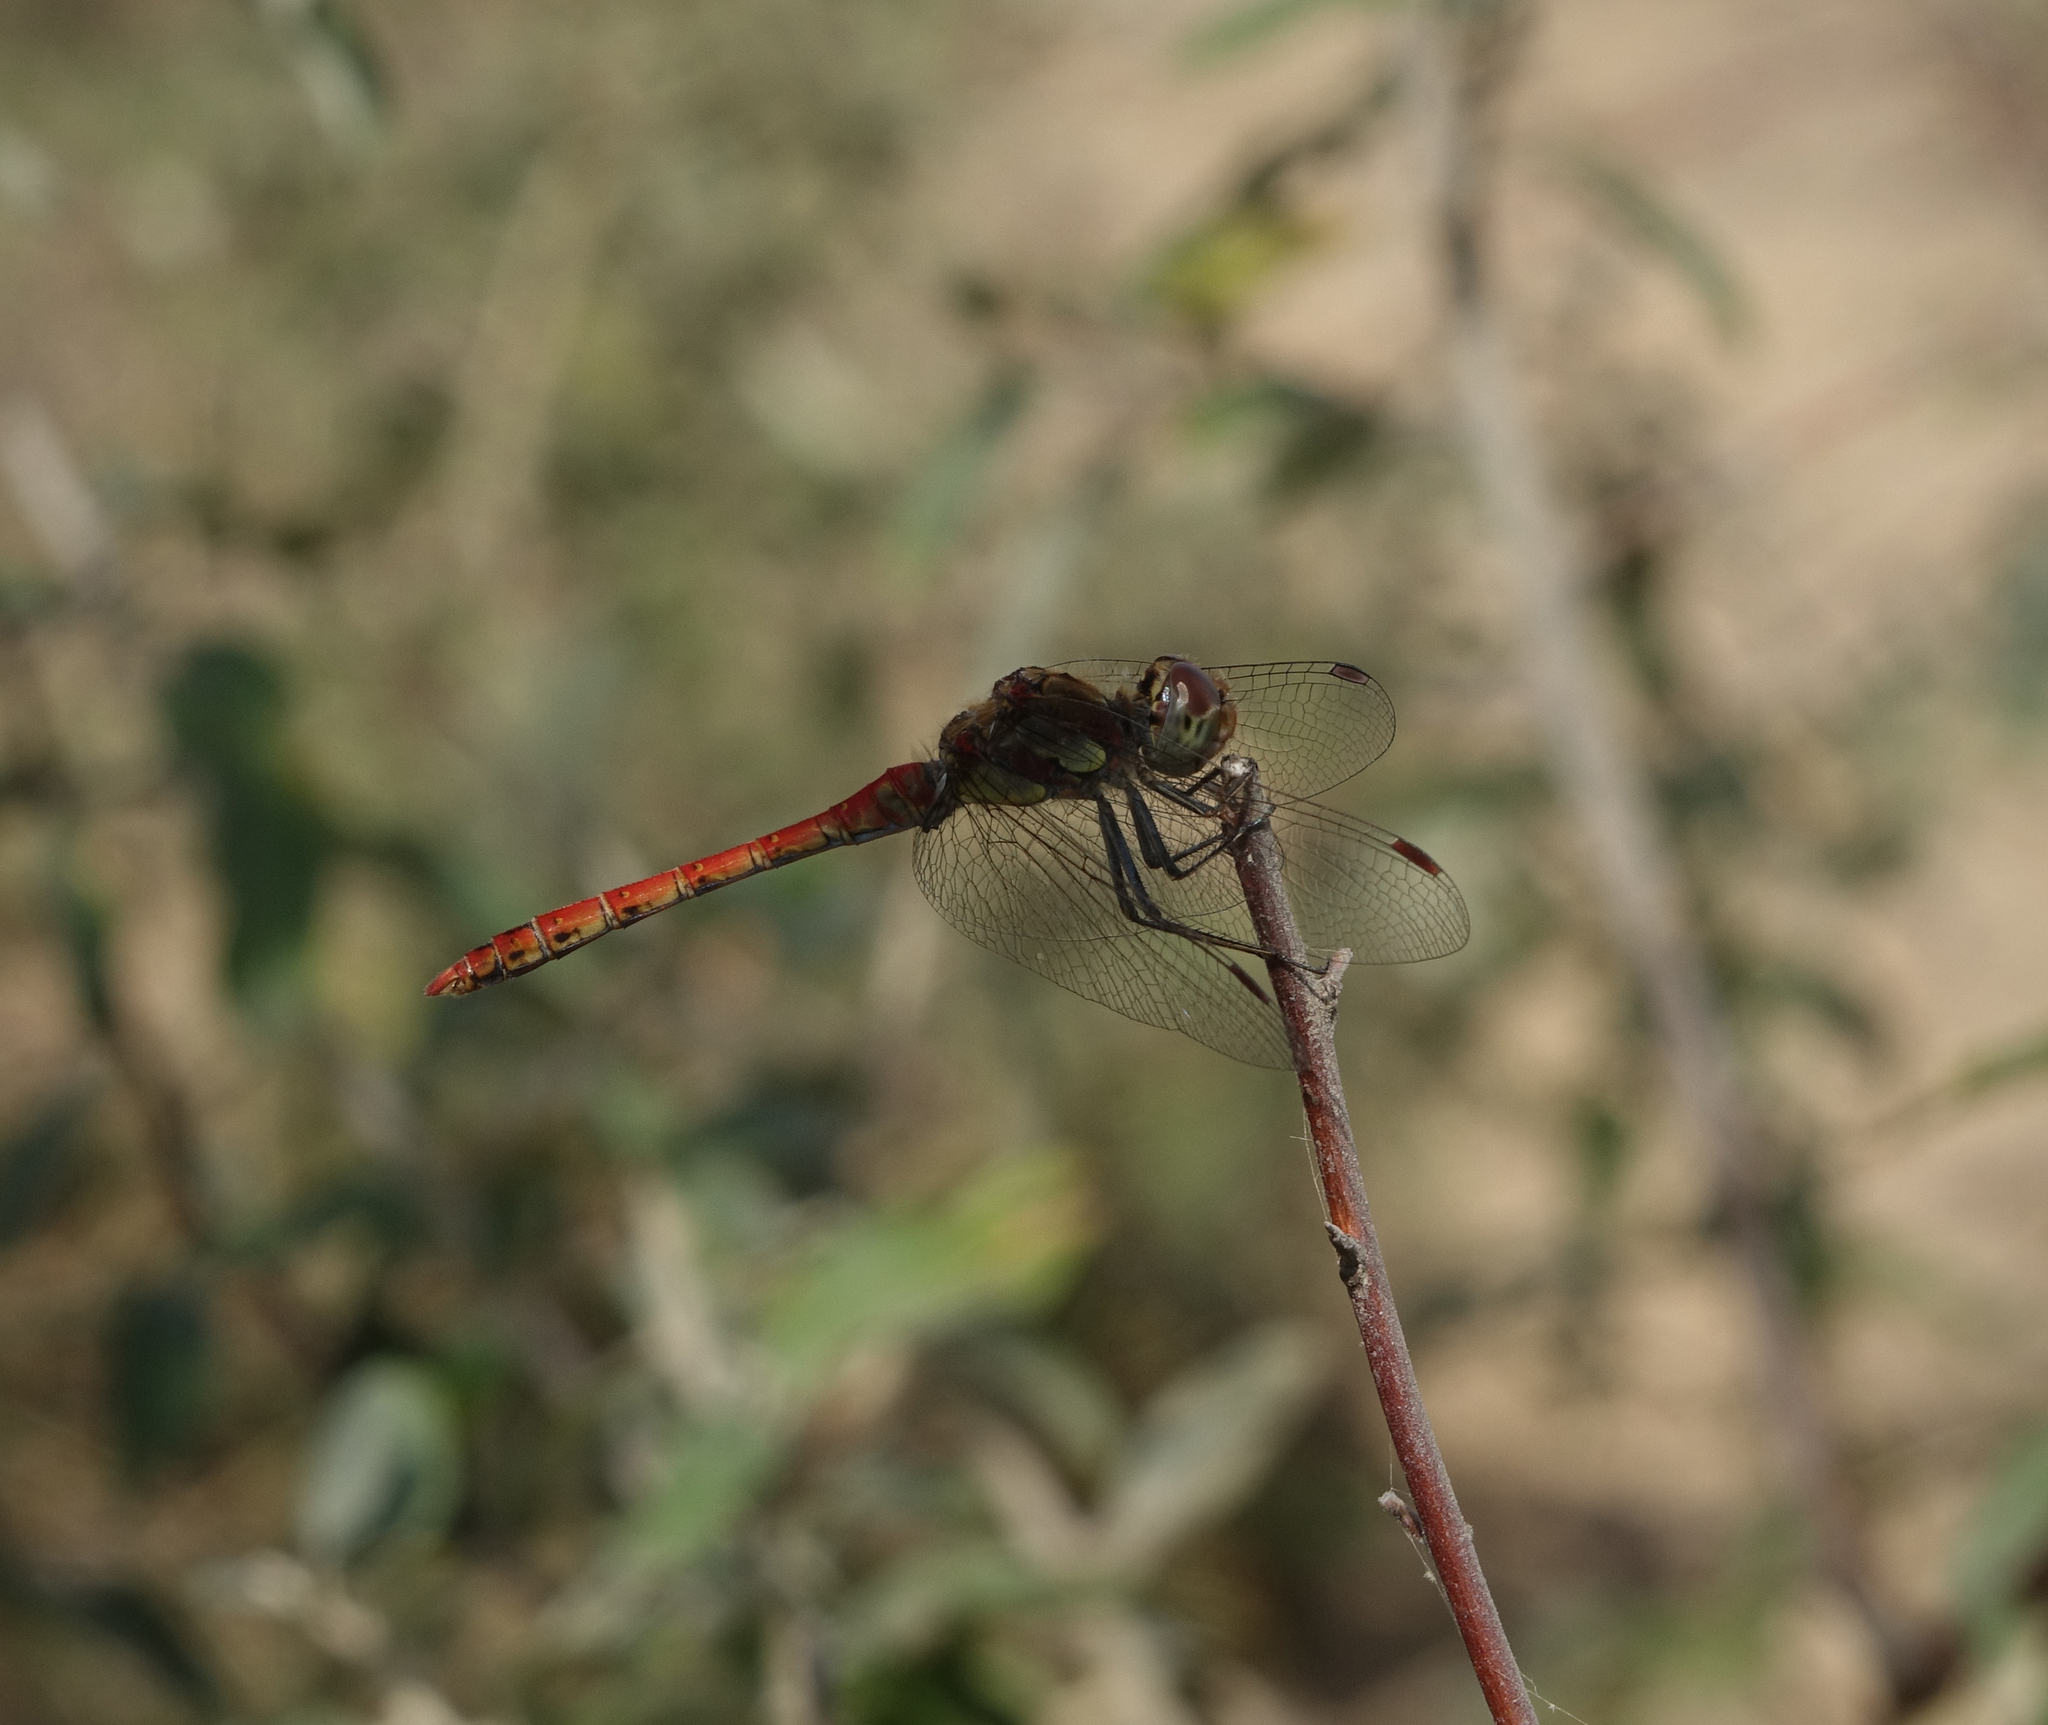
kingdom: Animalia
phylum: Arthropoda
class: Insecta
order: Odonata
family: Libellulidae
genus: Sympetrum
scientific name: Sympetrum striolatum
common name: Common darter
